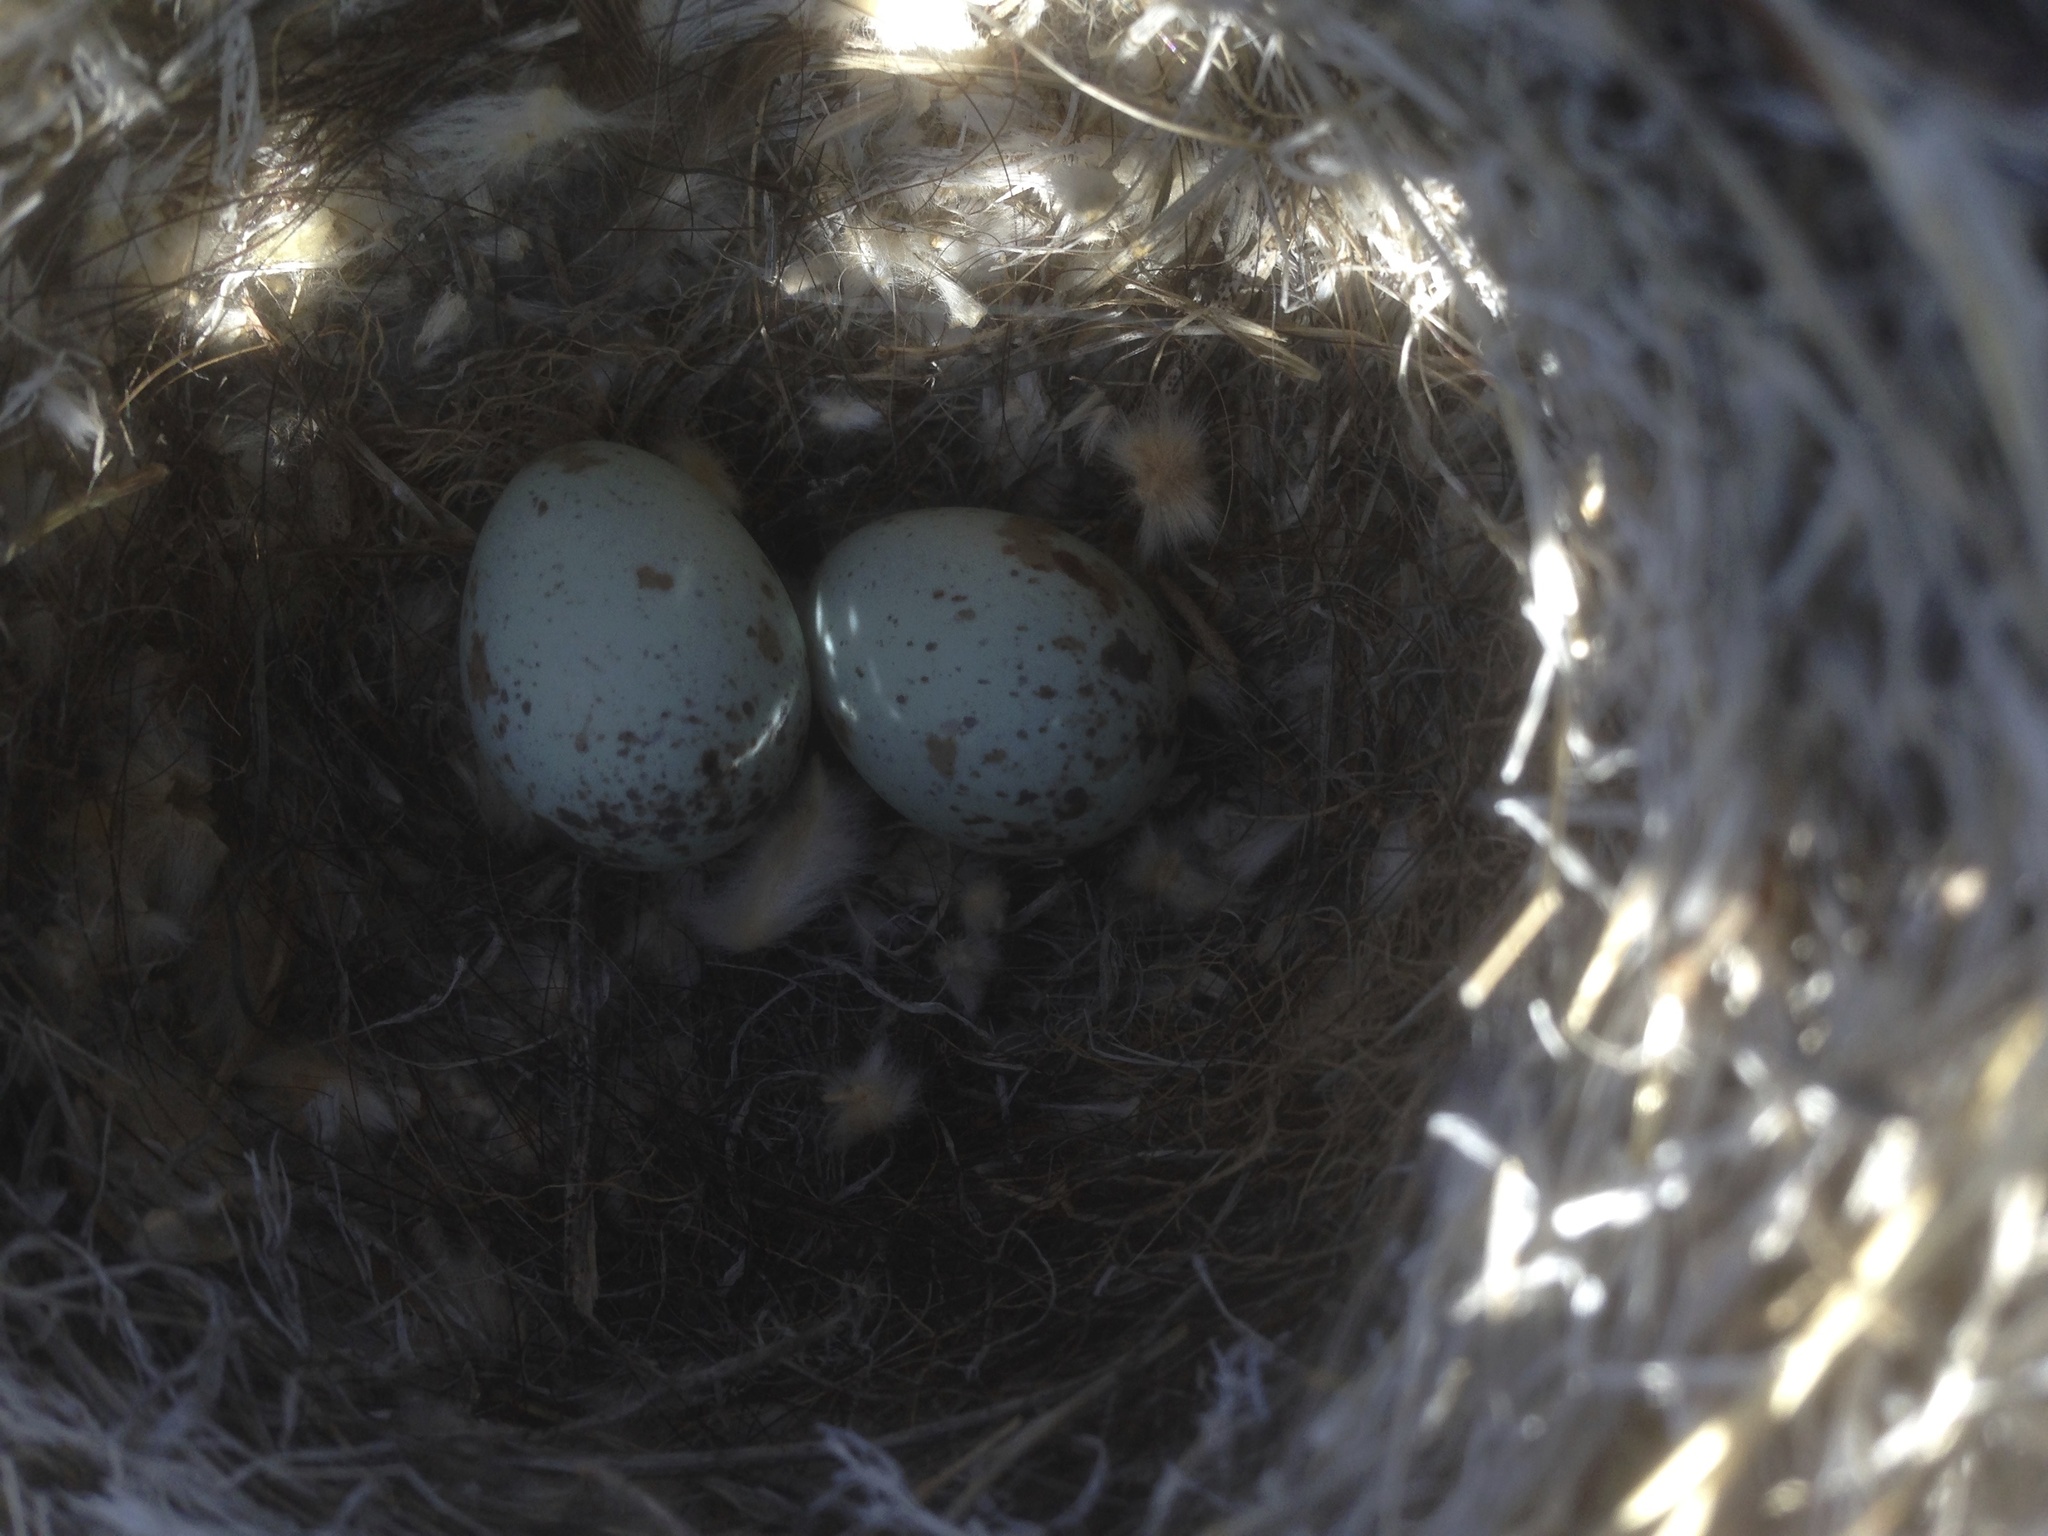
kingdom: Animalia
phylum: Chordata
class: Aves
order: Passeriformes
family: Passerellidae
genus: Artemisiospiza
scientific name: Artemisiospiza belli
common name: Bell's sparrow
